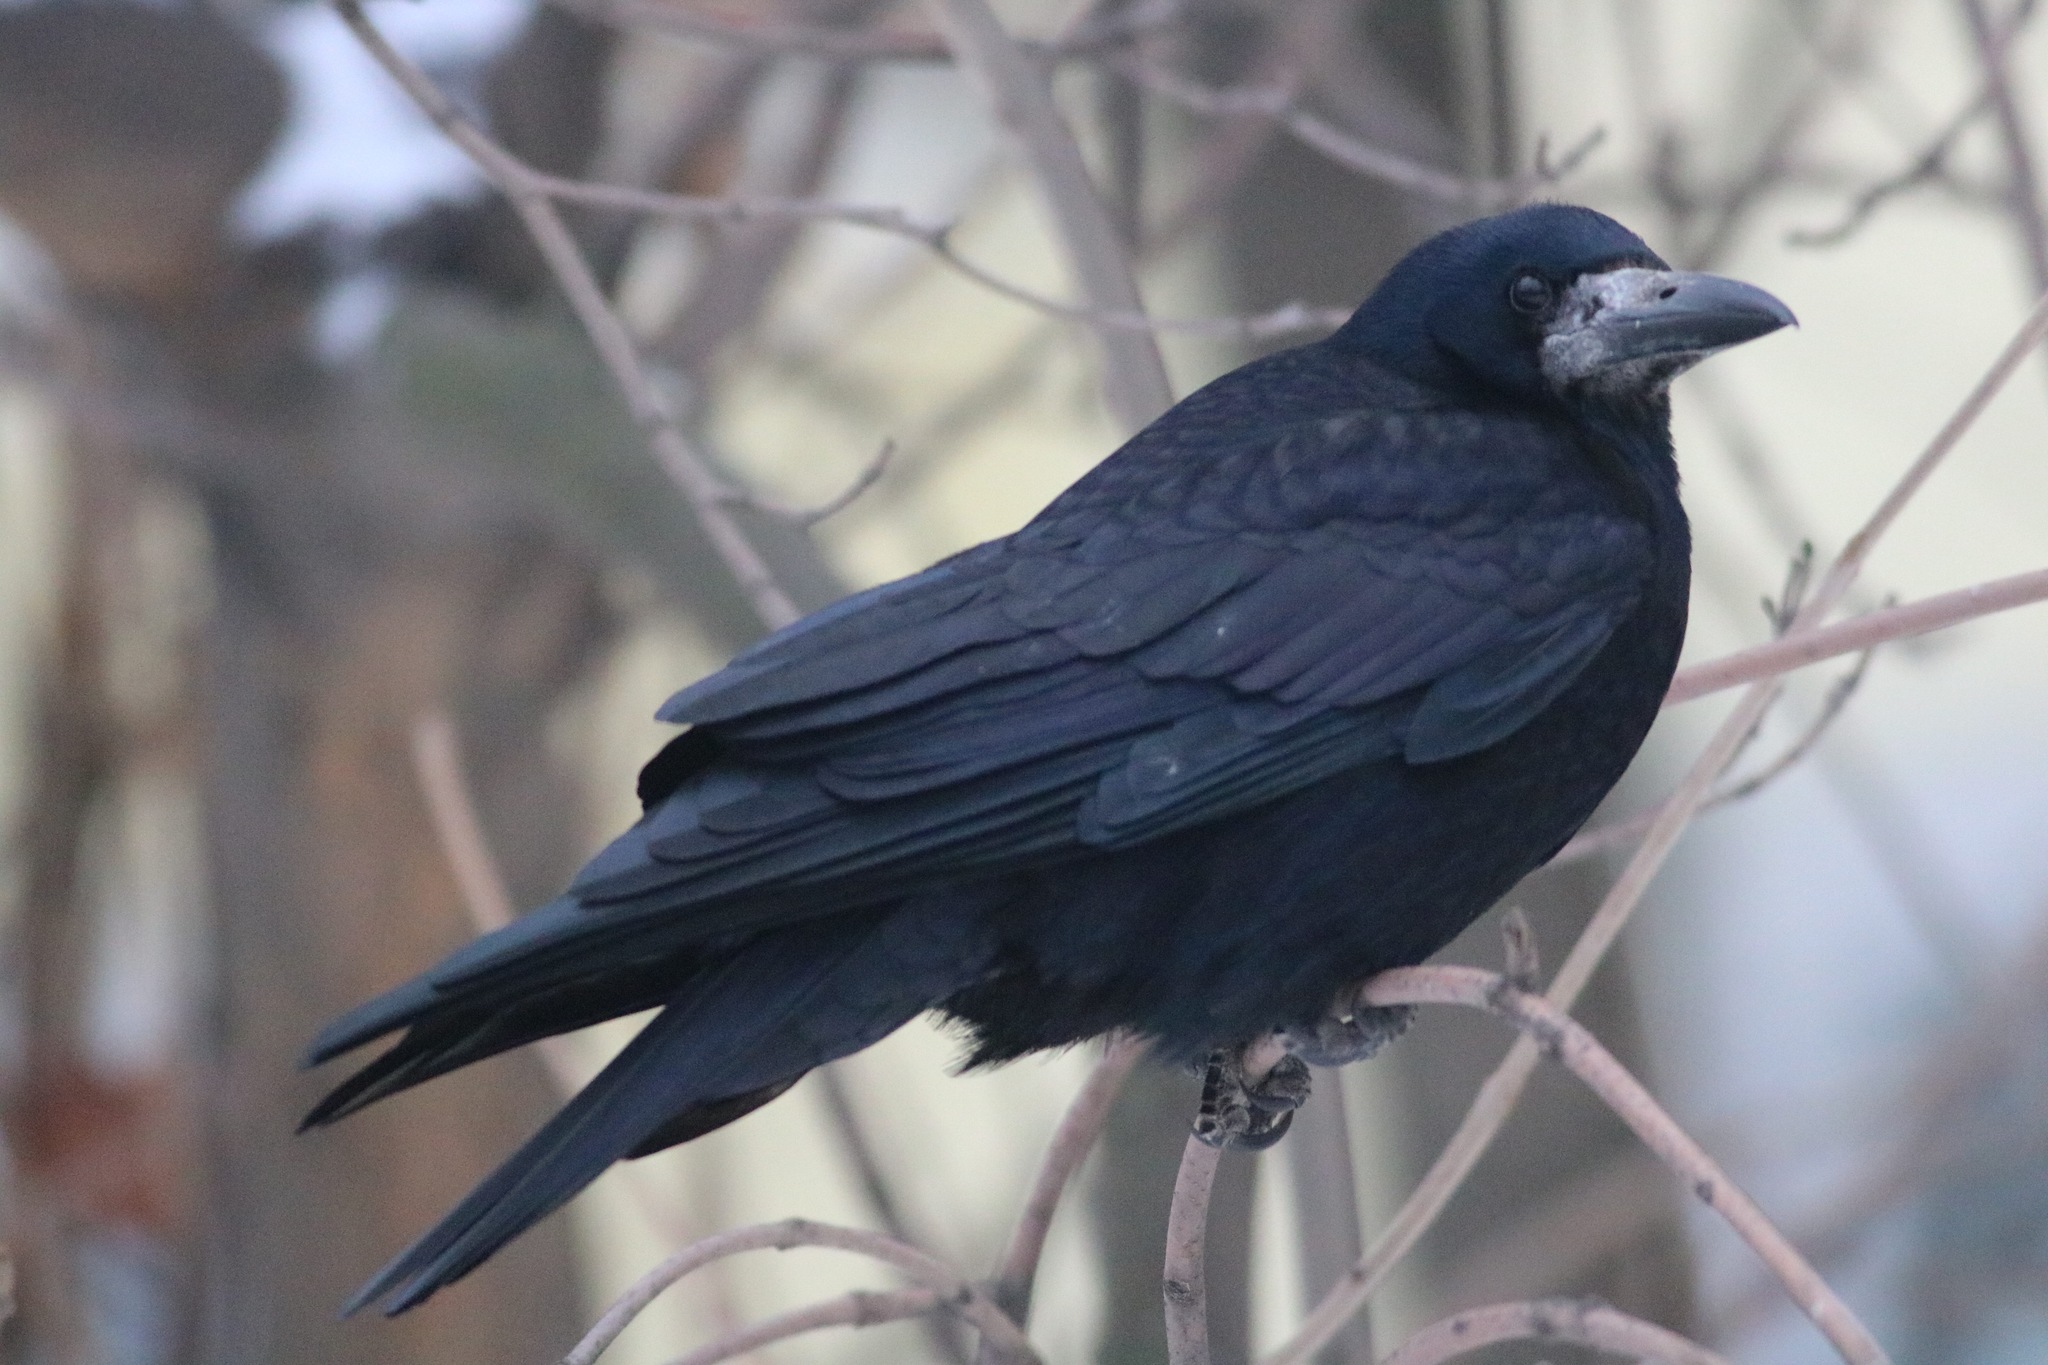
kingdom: Animalia
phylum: Chordata
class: Aves
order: Passeriformes
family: Corvidae
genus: Corvus
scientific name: Corvus frugilegus
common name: Rook
